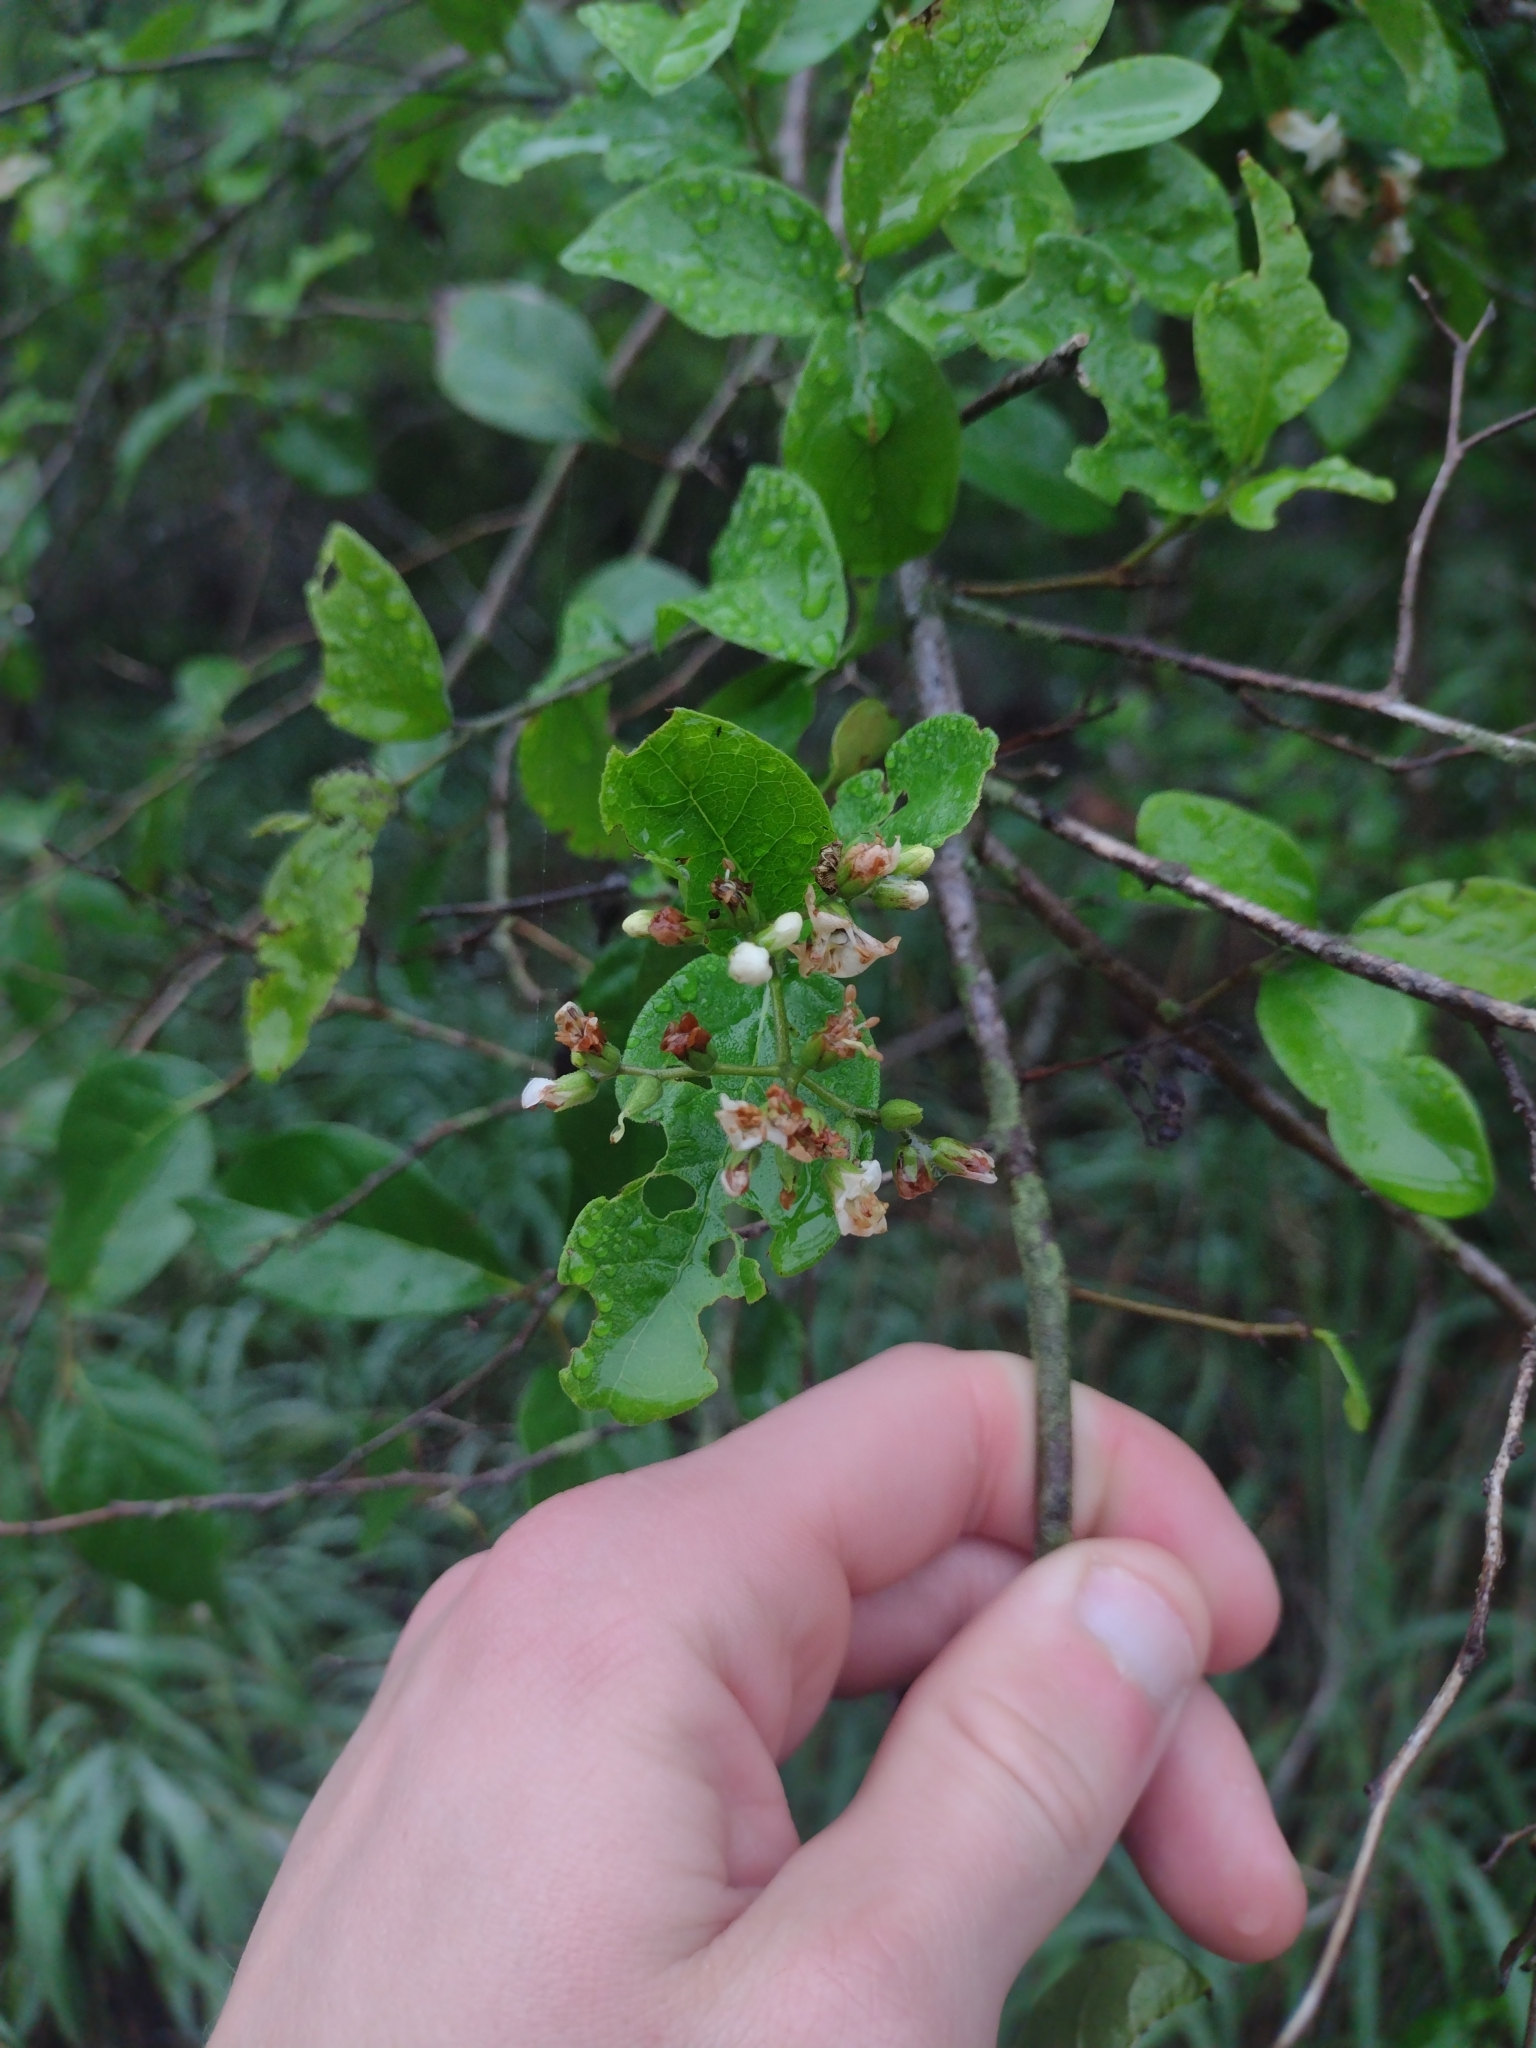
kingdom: Plantae
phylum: Tracheophyta
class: Magnoliopsida
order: Boraginales
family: Ehretiaceae
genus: Ehretia
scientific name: Ehretia anacua
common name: Sugarberry
